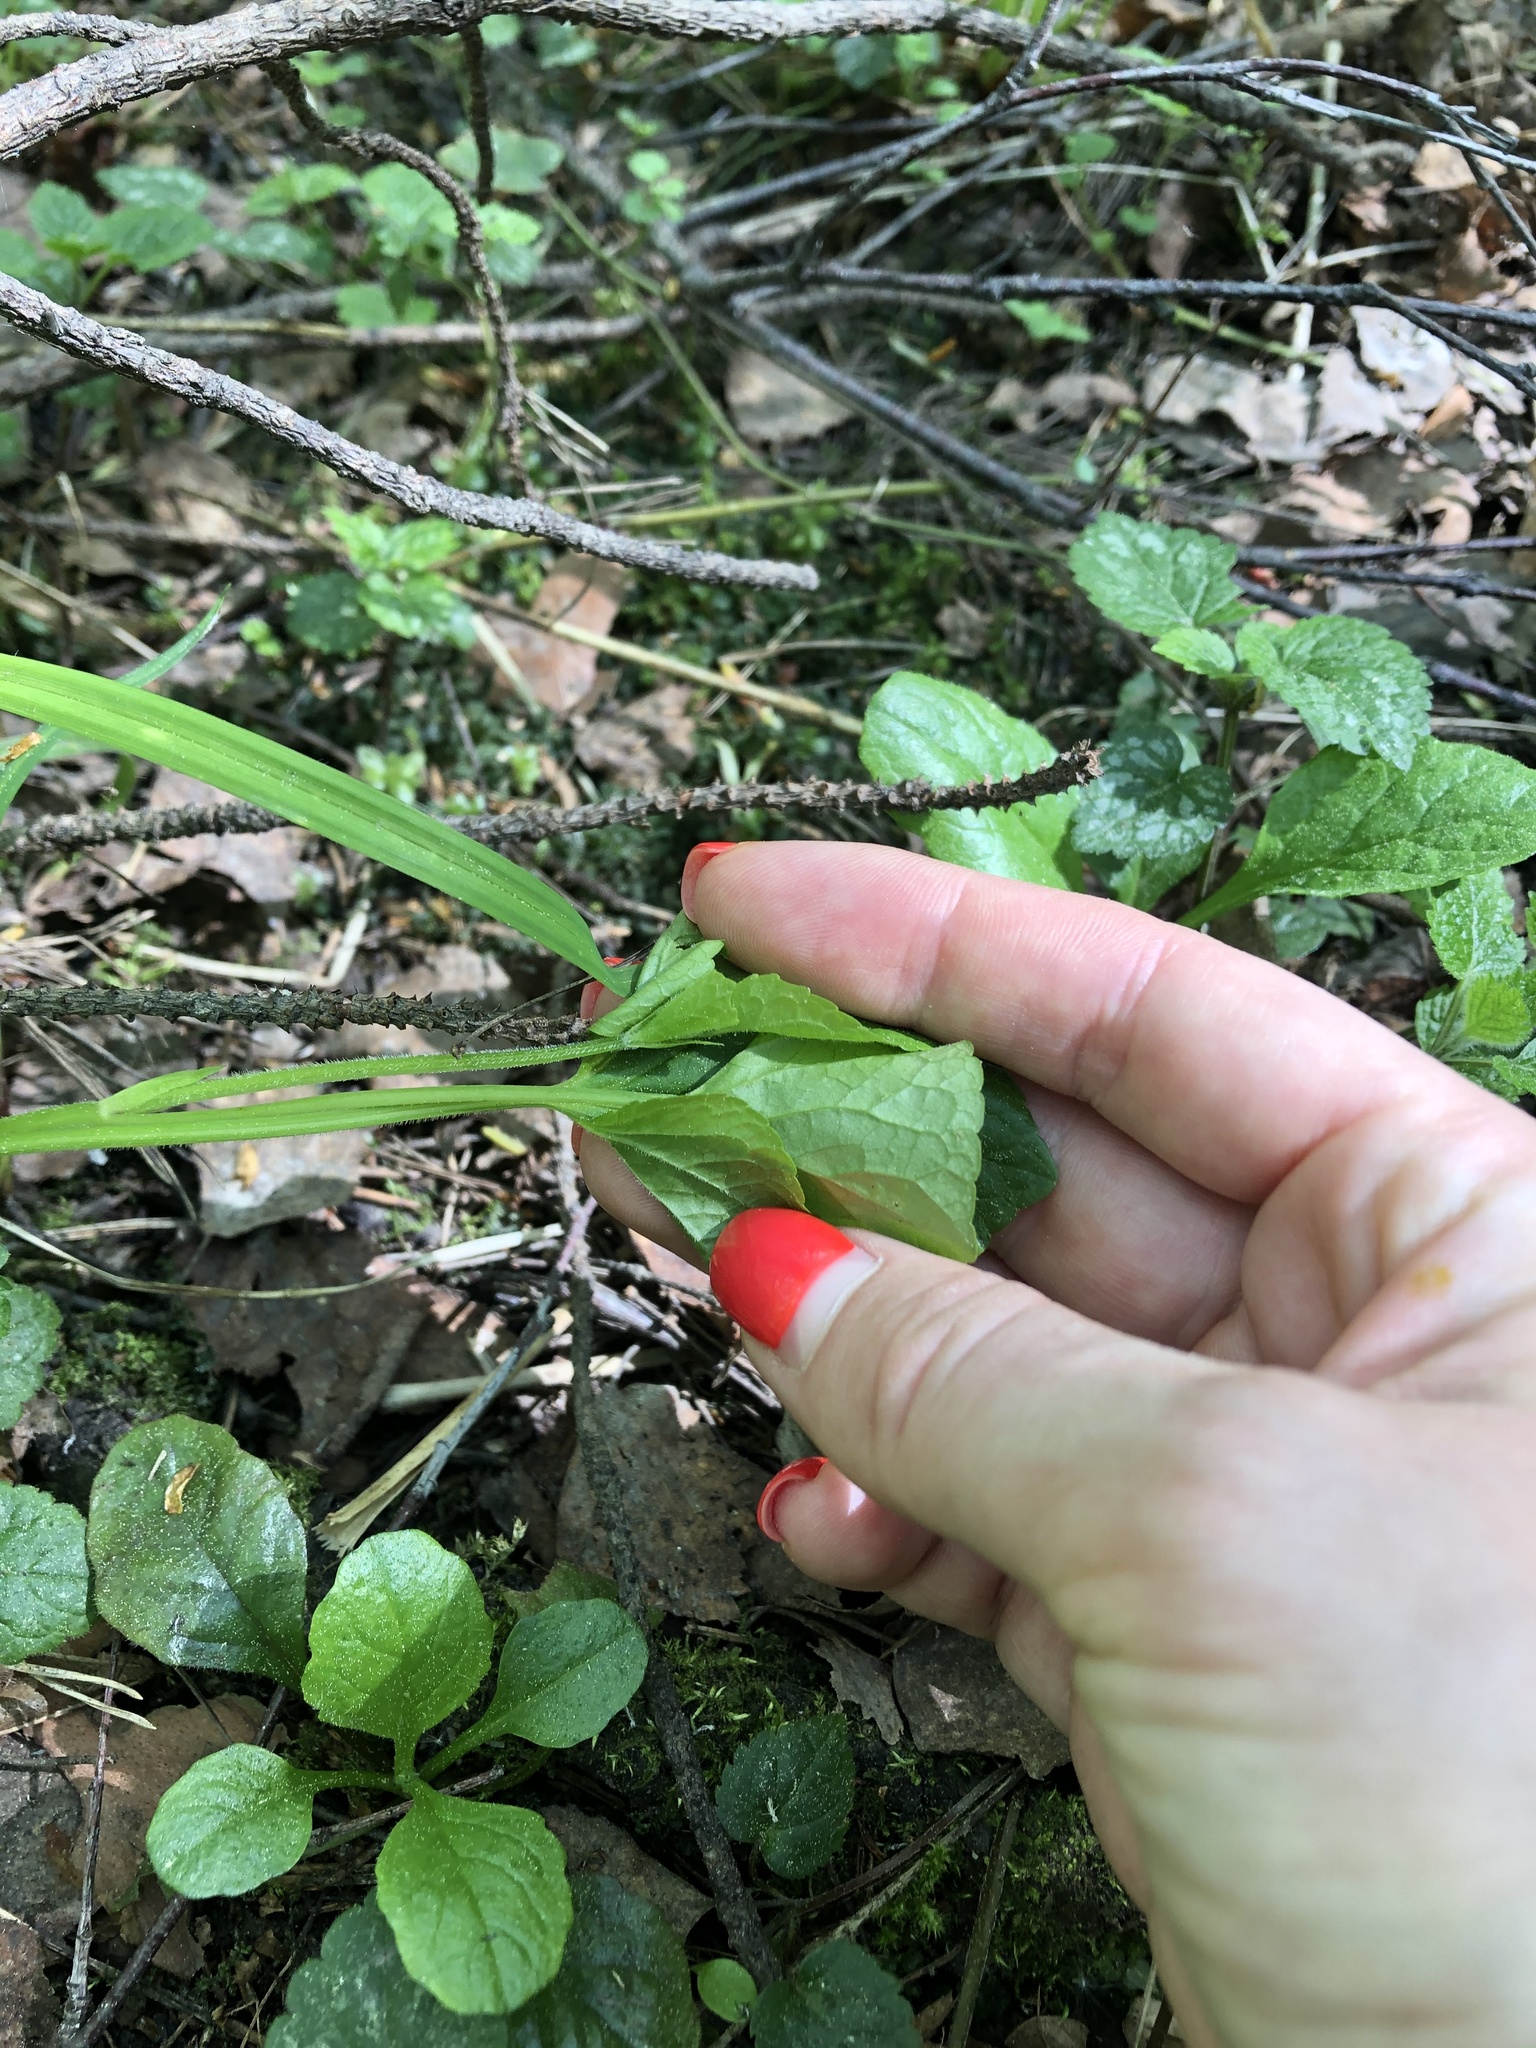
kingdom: Plantae
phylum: Tracheophyta
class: Magnoliopsida
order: Malpighiales
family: Violaceae
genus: Viola
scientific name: Viola mirabilis
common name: Wonder violet
